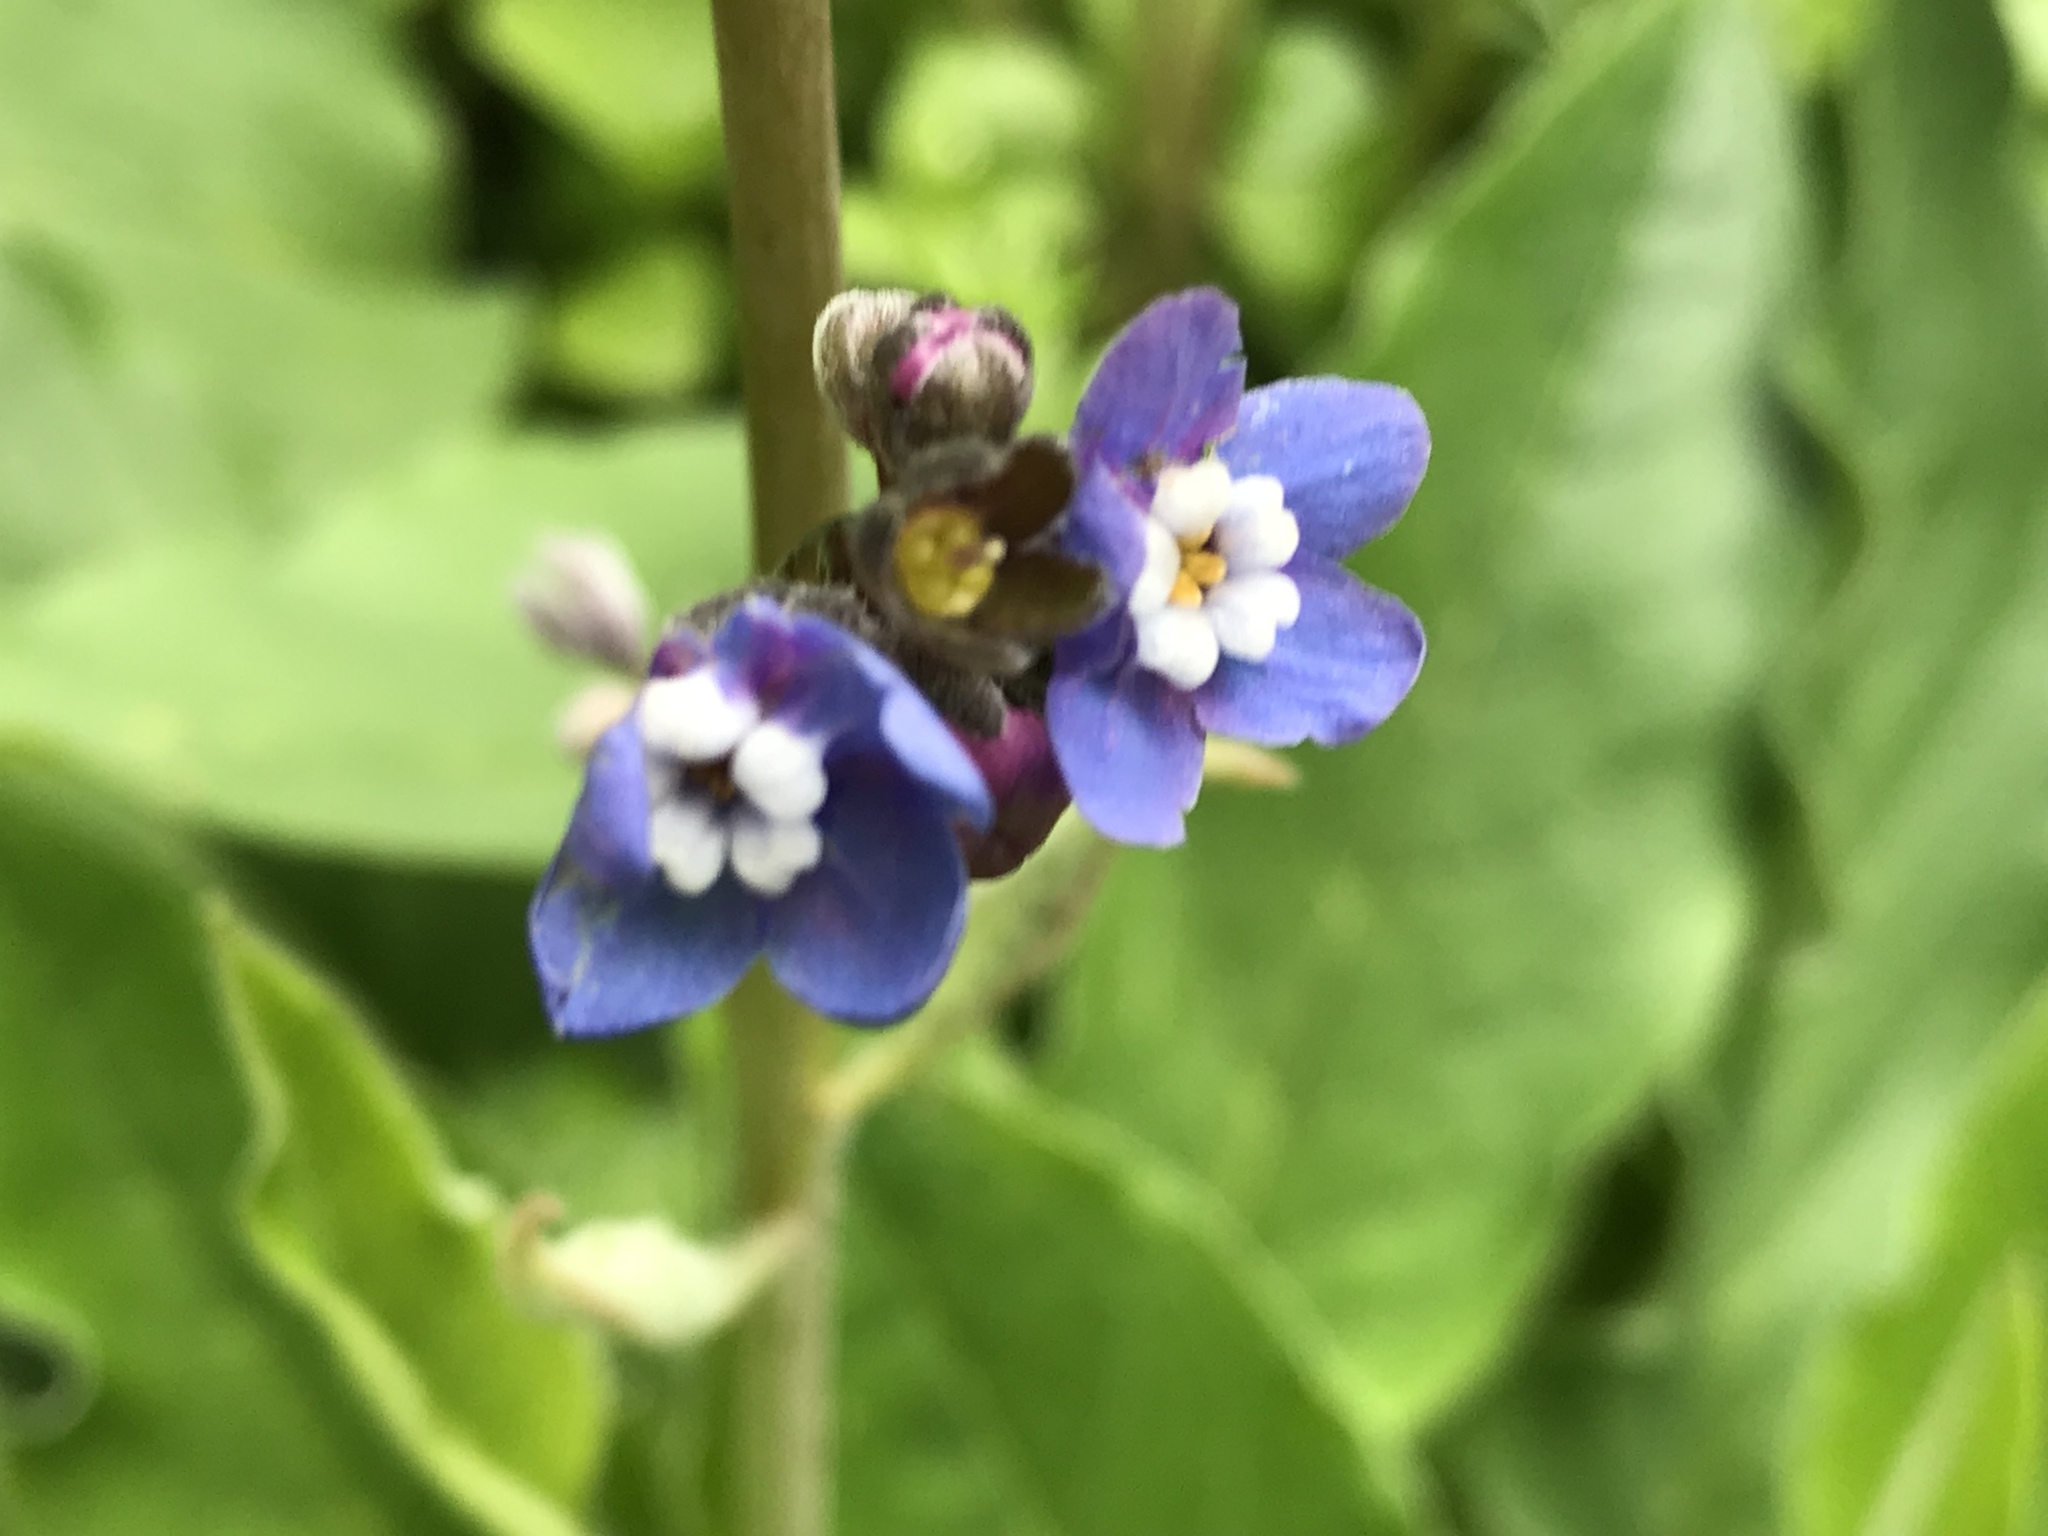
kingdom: Plantae
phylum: Tracheophyta
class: Magnoliopsida
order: Boraginales
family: Boraginaceae
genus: Adelinia
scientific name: Adelinia grande
